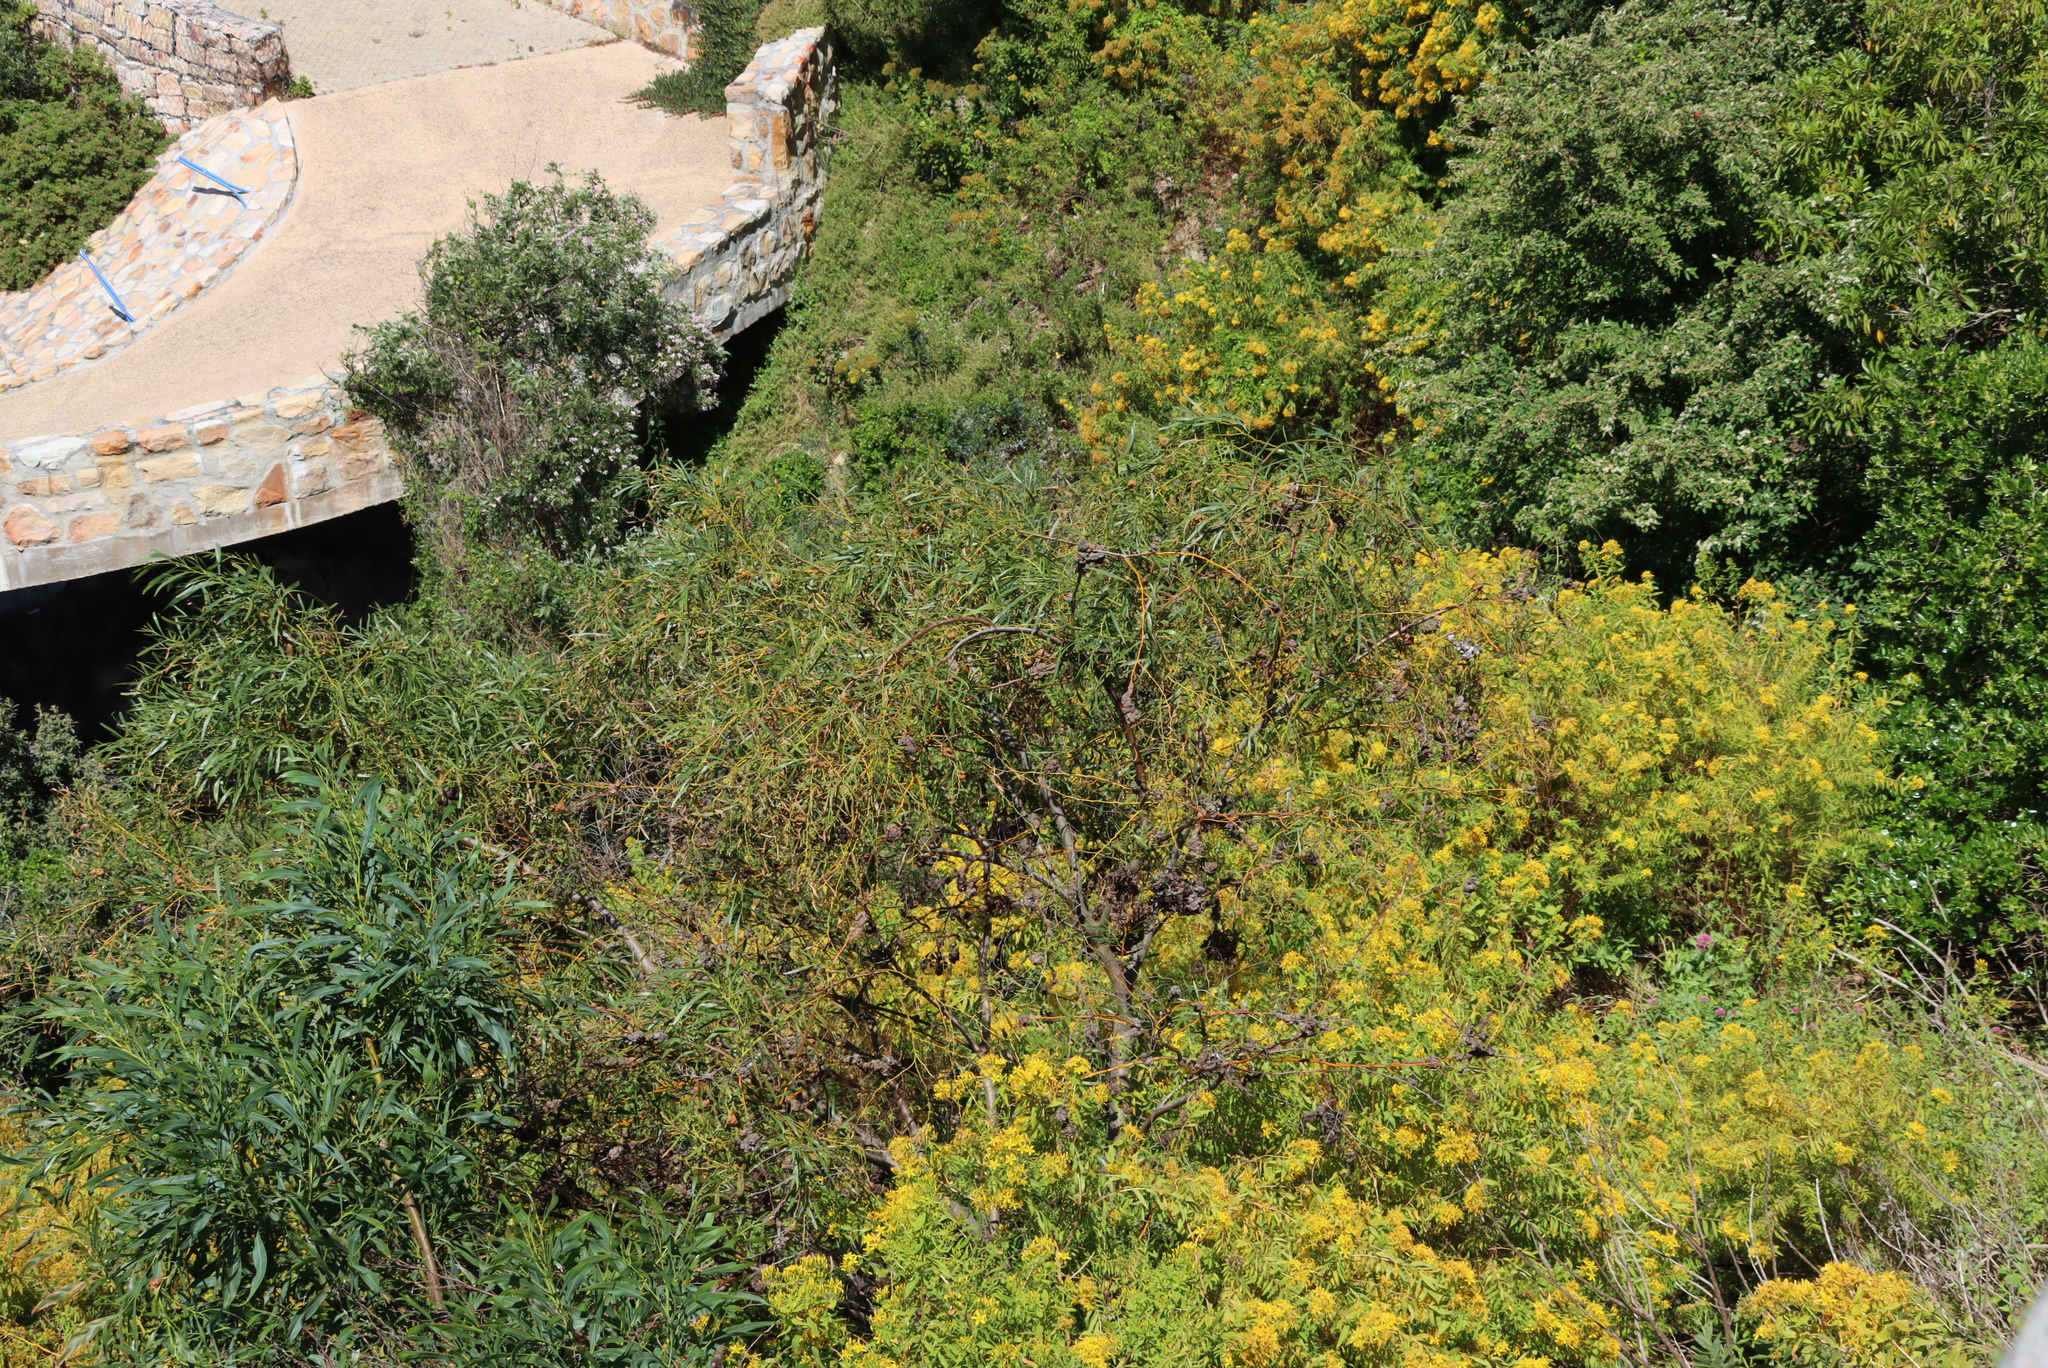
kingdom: Plantae
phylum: Tracheophyta
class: Magnoliopsida
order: Fabales
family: Fabaceae
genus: Acacia
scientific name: Acacia saligna
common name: Orange wattle
